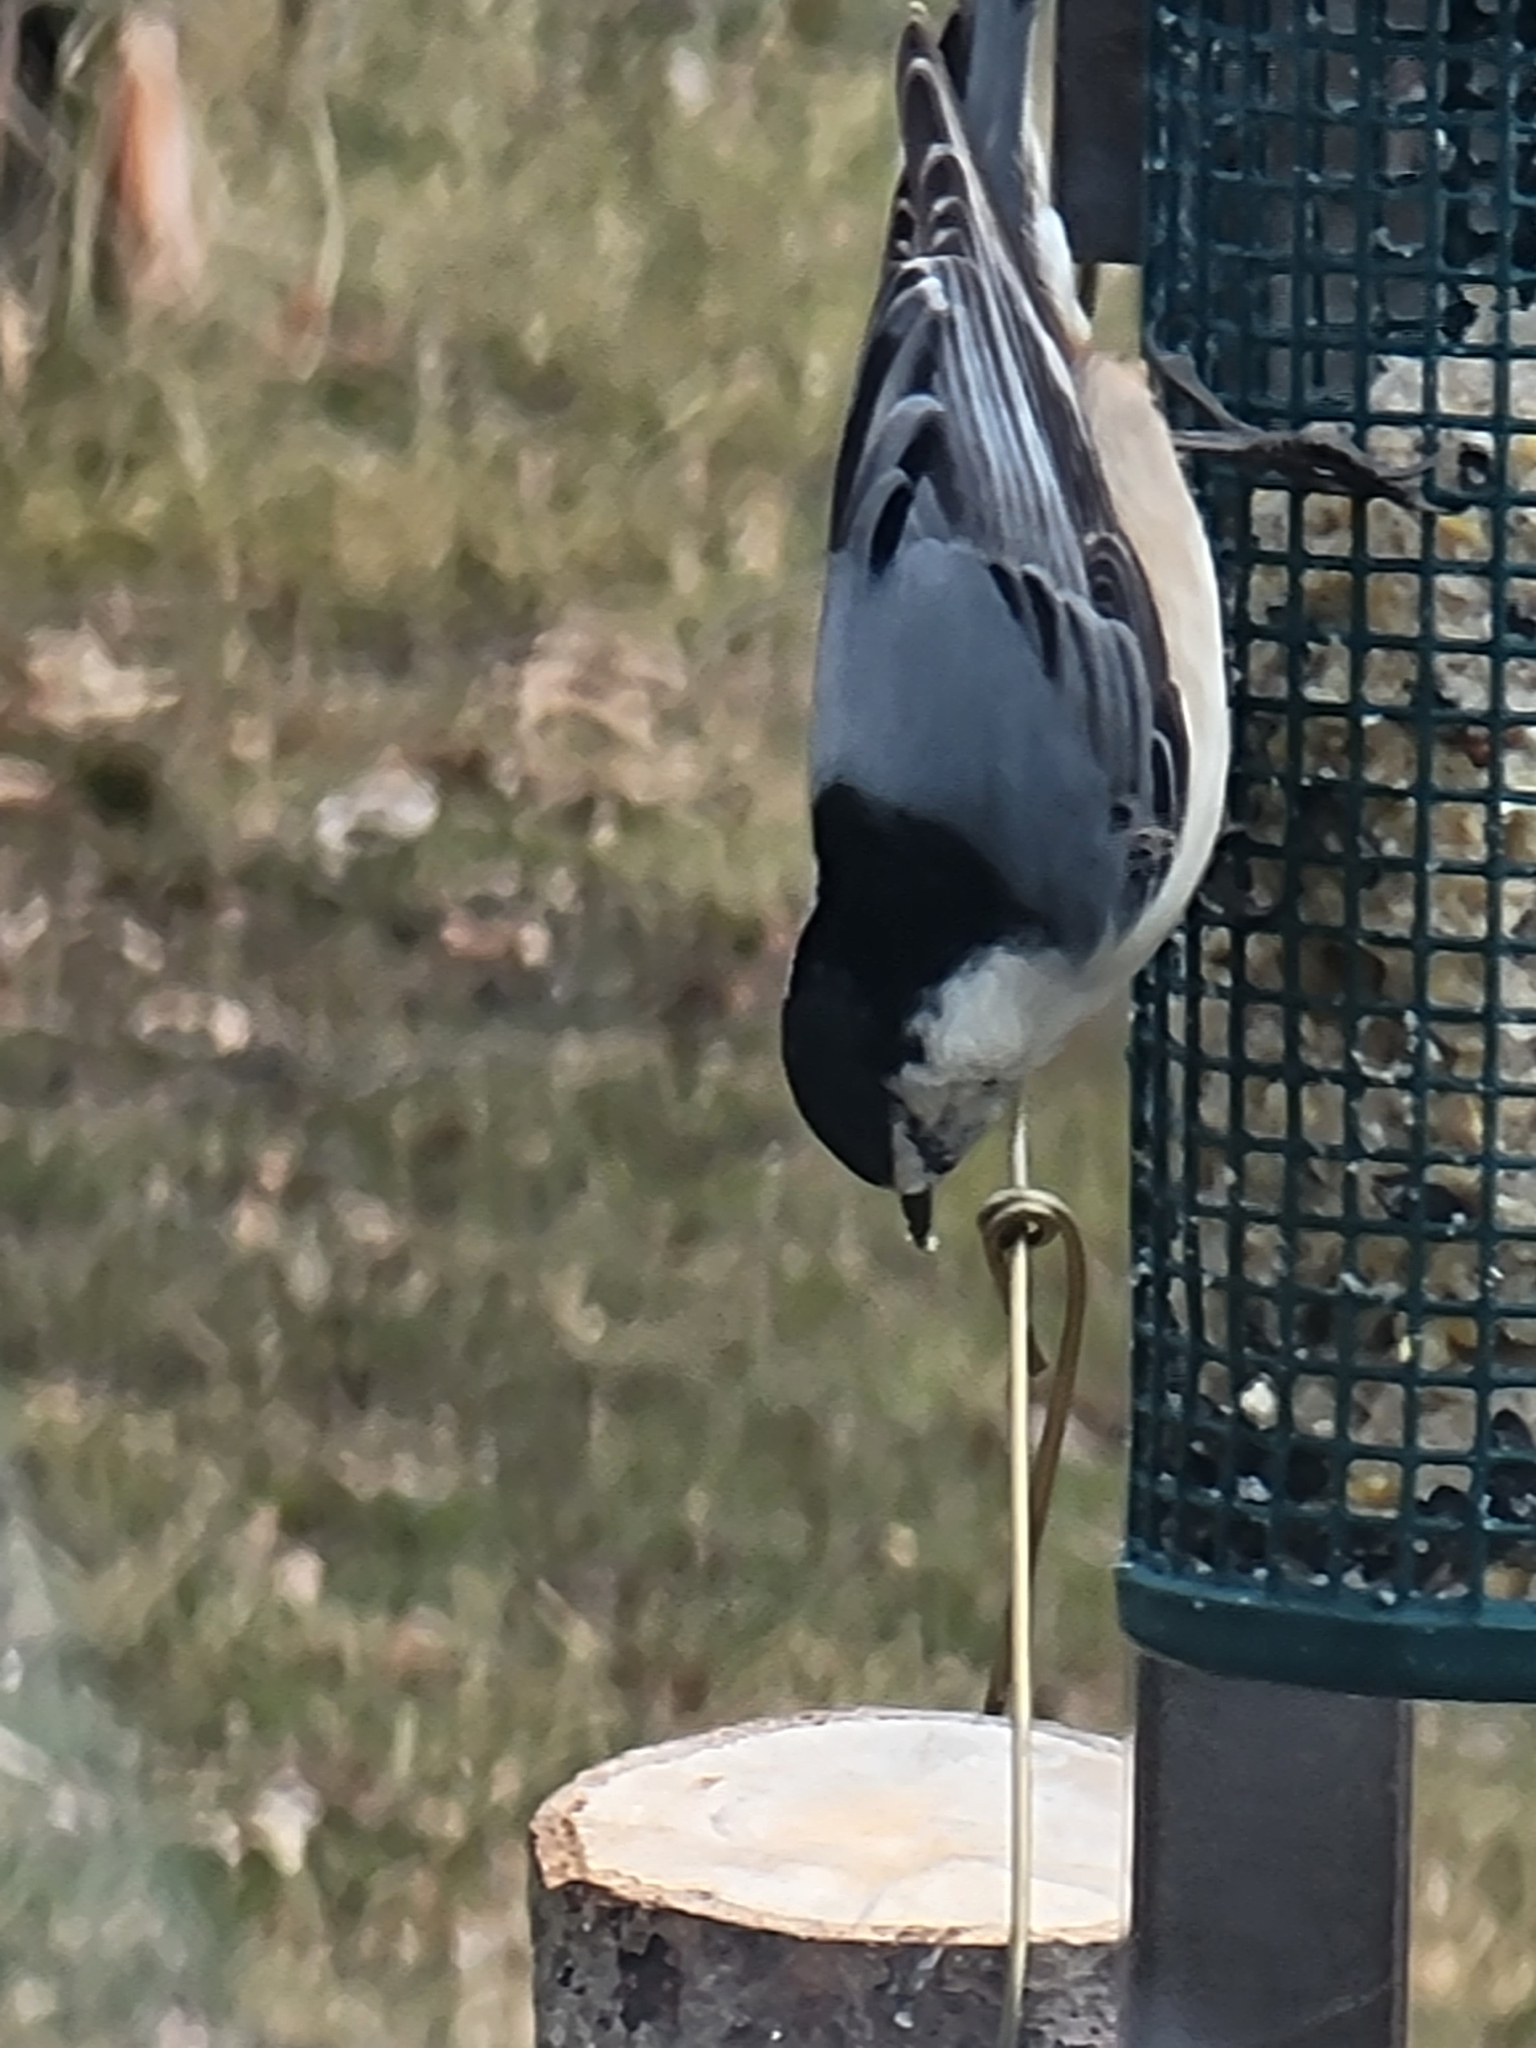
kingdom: Animalia
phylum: Chordata
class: Aves
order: Passeriformes
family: Sittidae
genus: Sitta
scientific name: Sitta carolinensis
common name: White-breasted nuthatch
